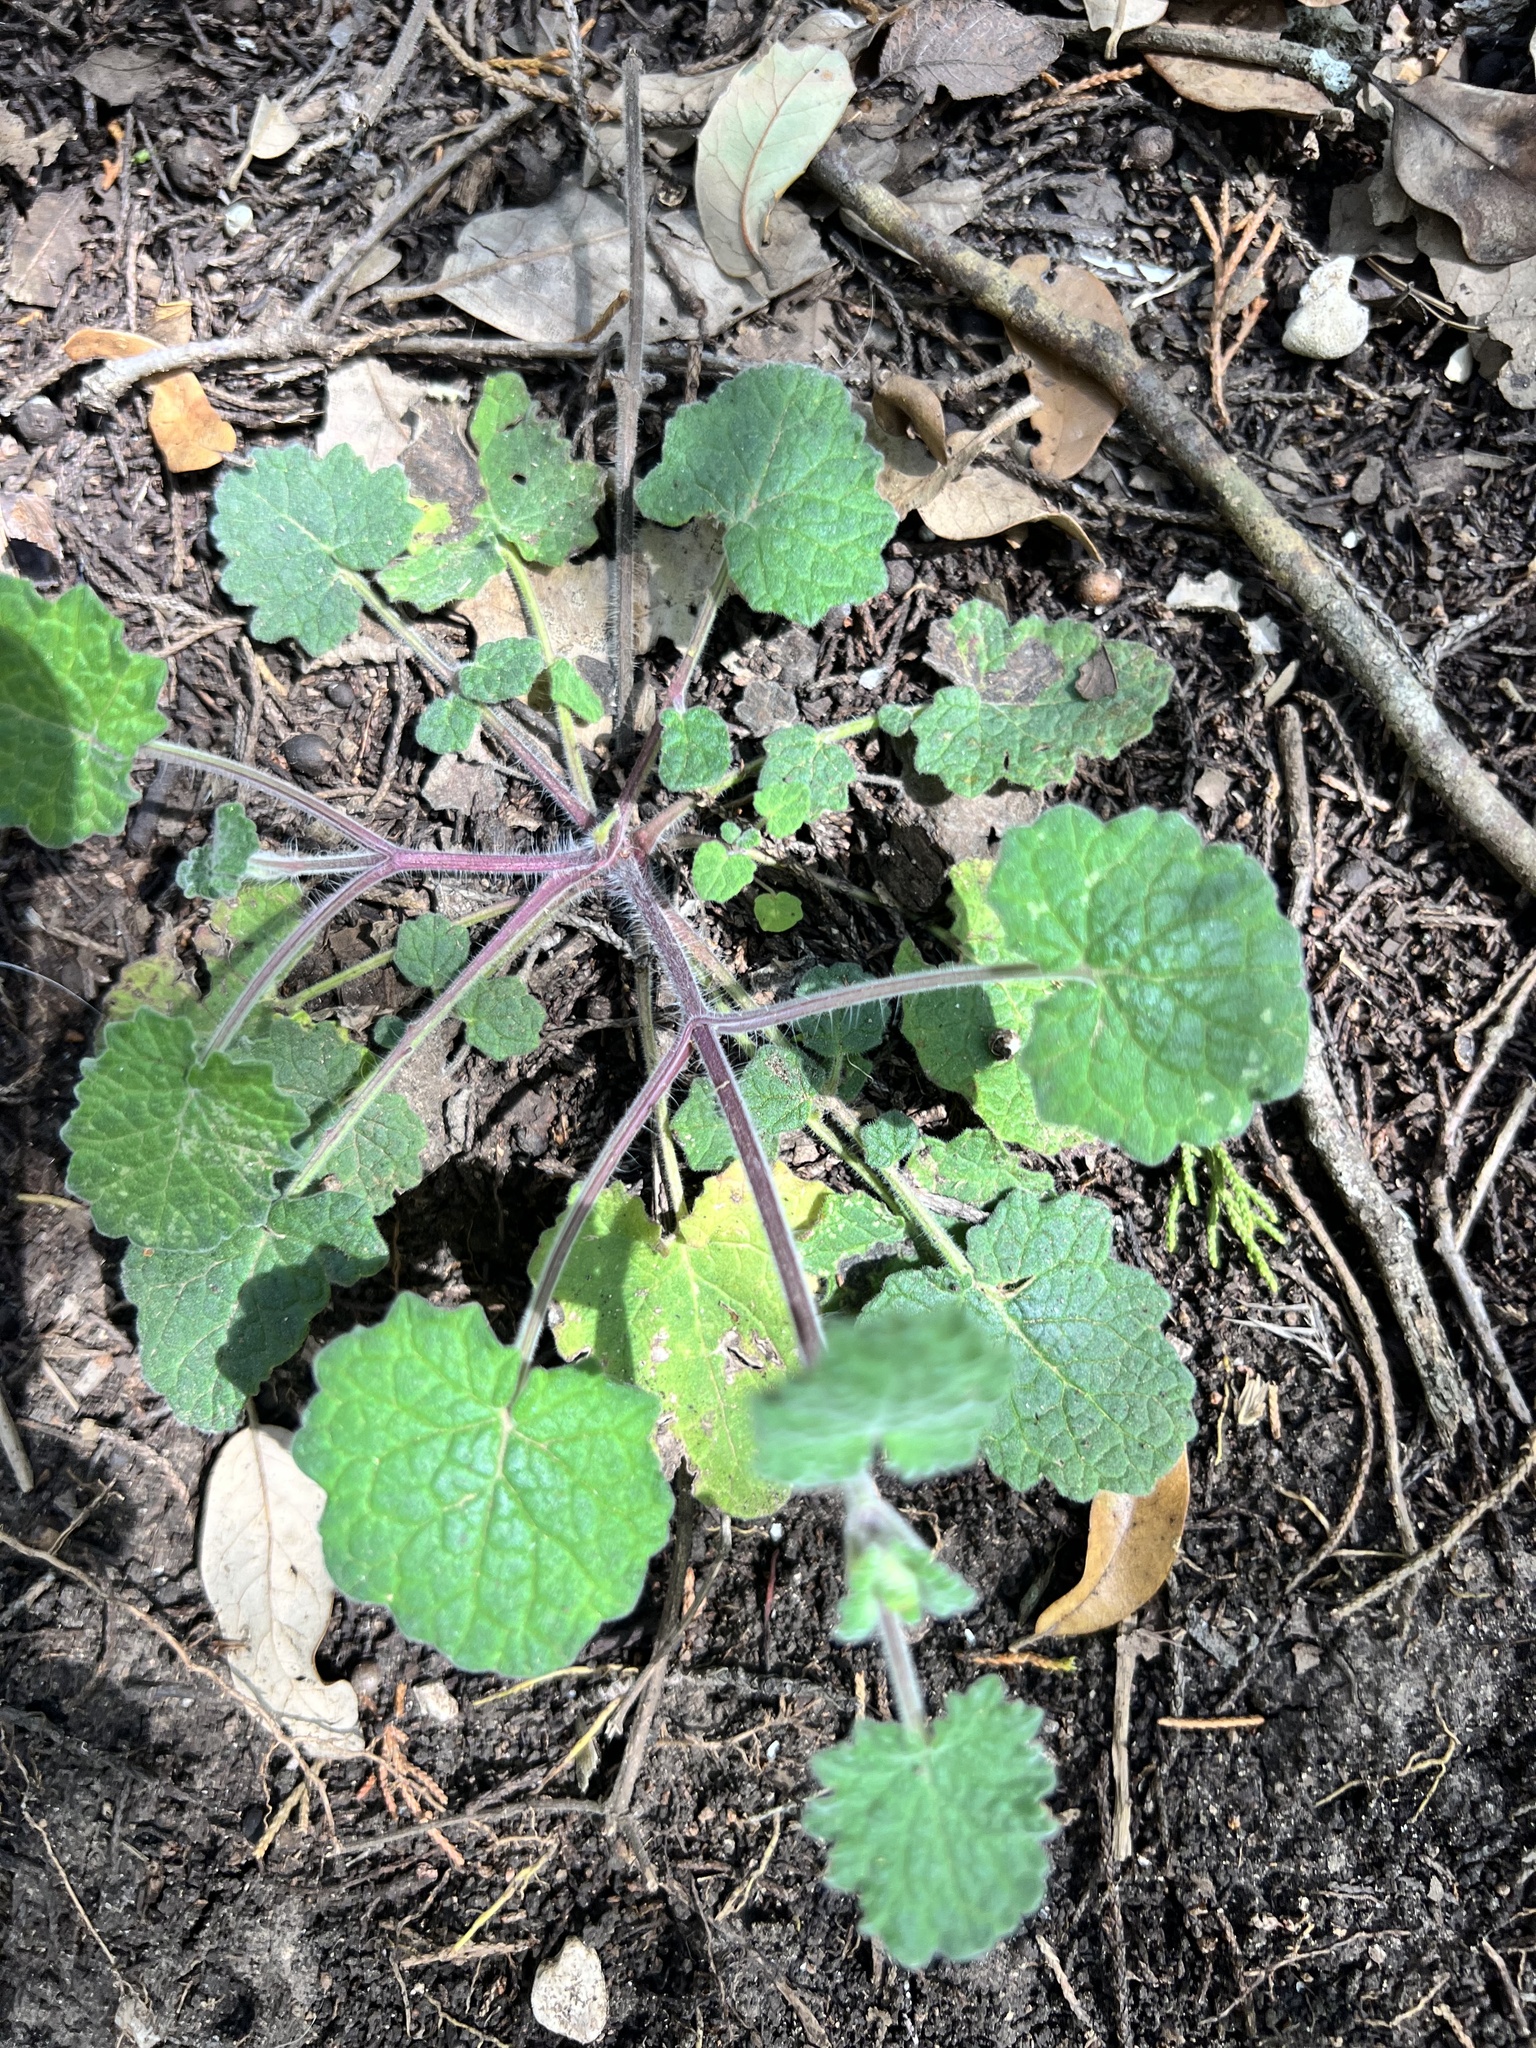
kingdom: Plantae
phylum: Tracheophyta
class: Magnoliopsida
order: Lamiales
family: Lamiaceae
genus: Salvia
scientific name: Salvia roemeriana
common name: Cedar sage
